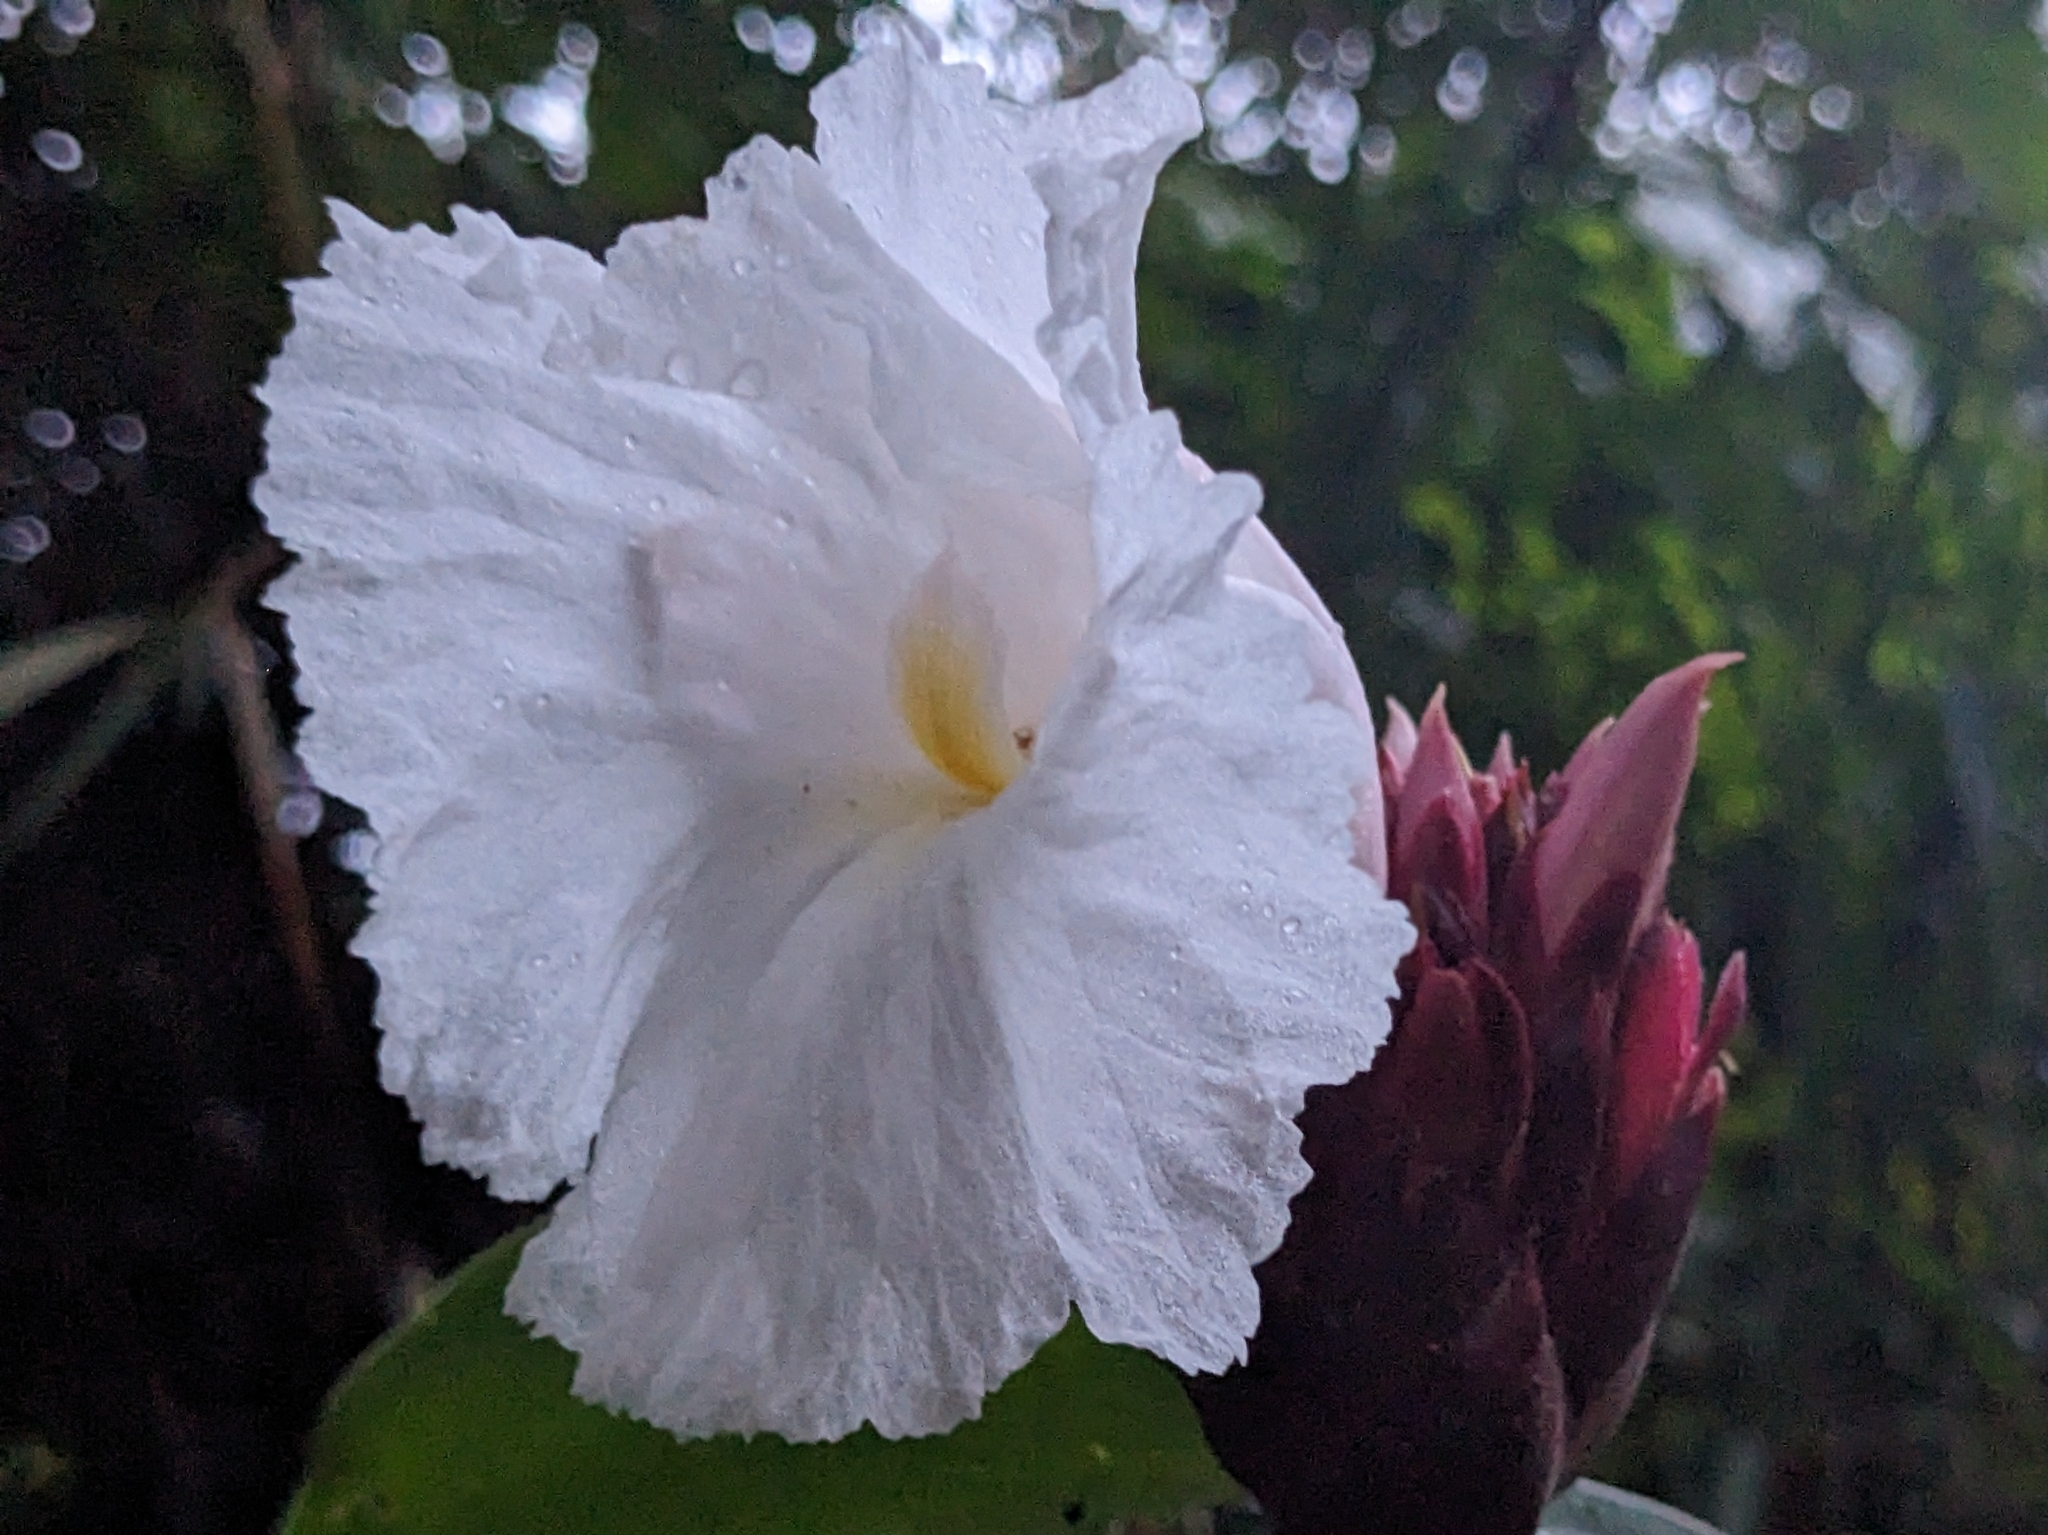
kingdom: Plantae
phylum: Tracheophyta
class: Liliopsida
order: Zingiberales
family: Costaceae
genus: Hellenia
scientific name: Hellenia speciosa
